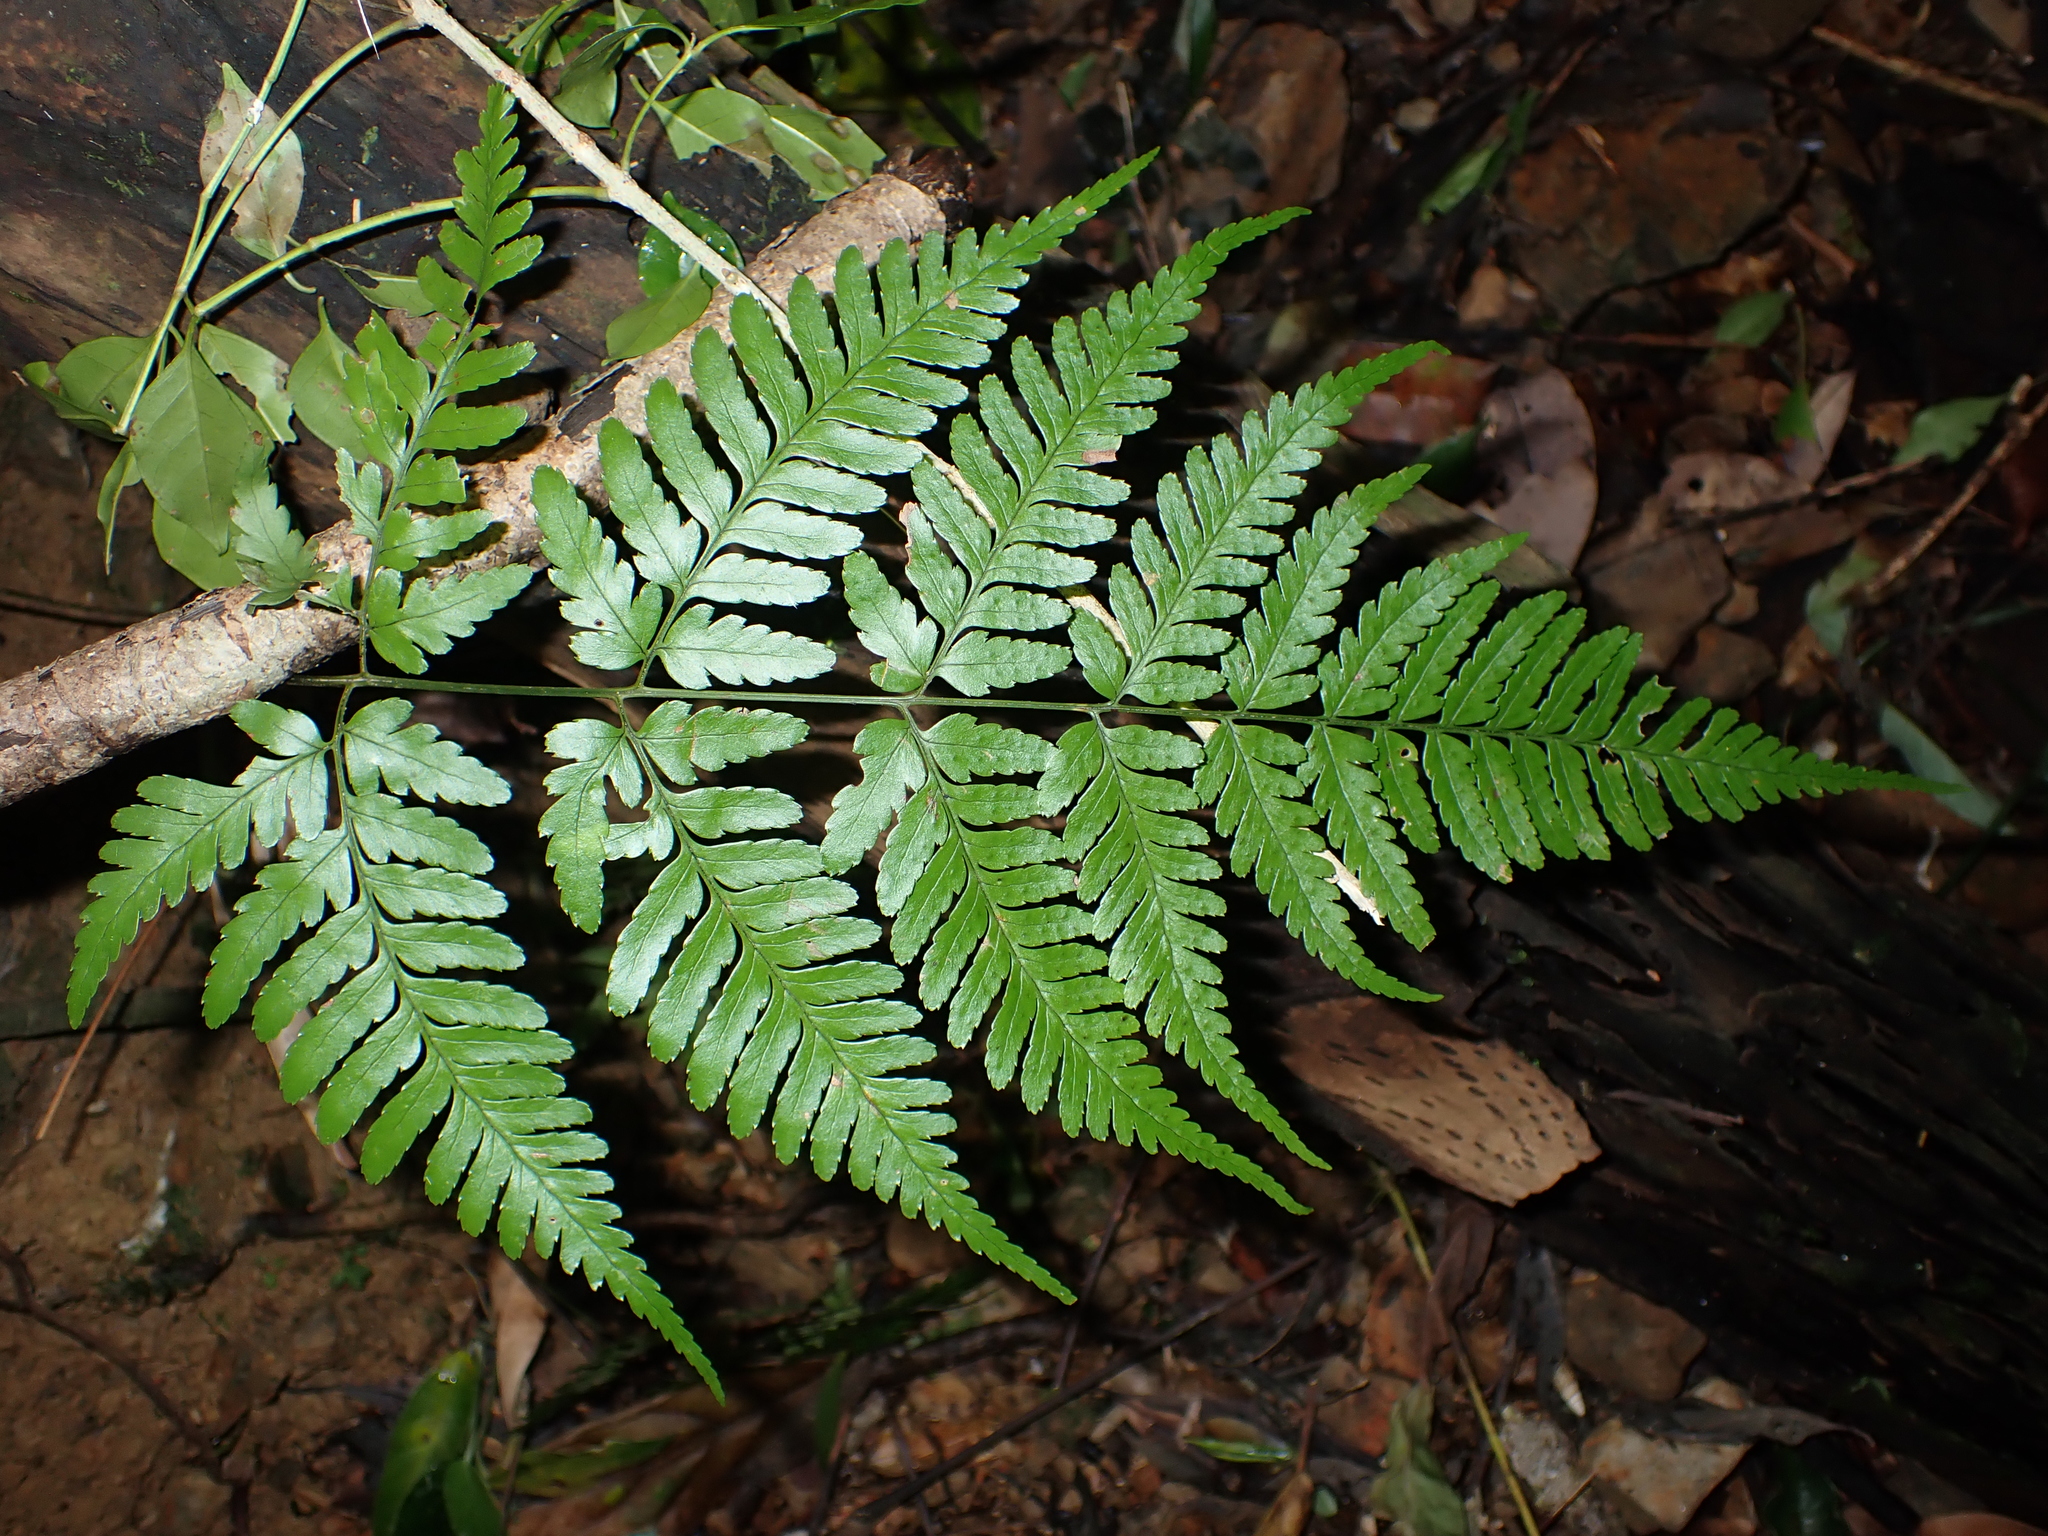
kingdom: Plantae
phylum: Tracheophyta
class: Polypodiopsida
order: Polypodiales
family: Dryopteridaceae
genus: Dryopteris
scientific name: Dryopteris sparsa
